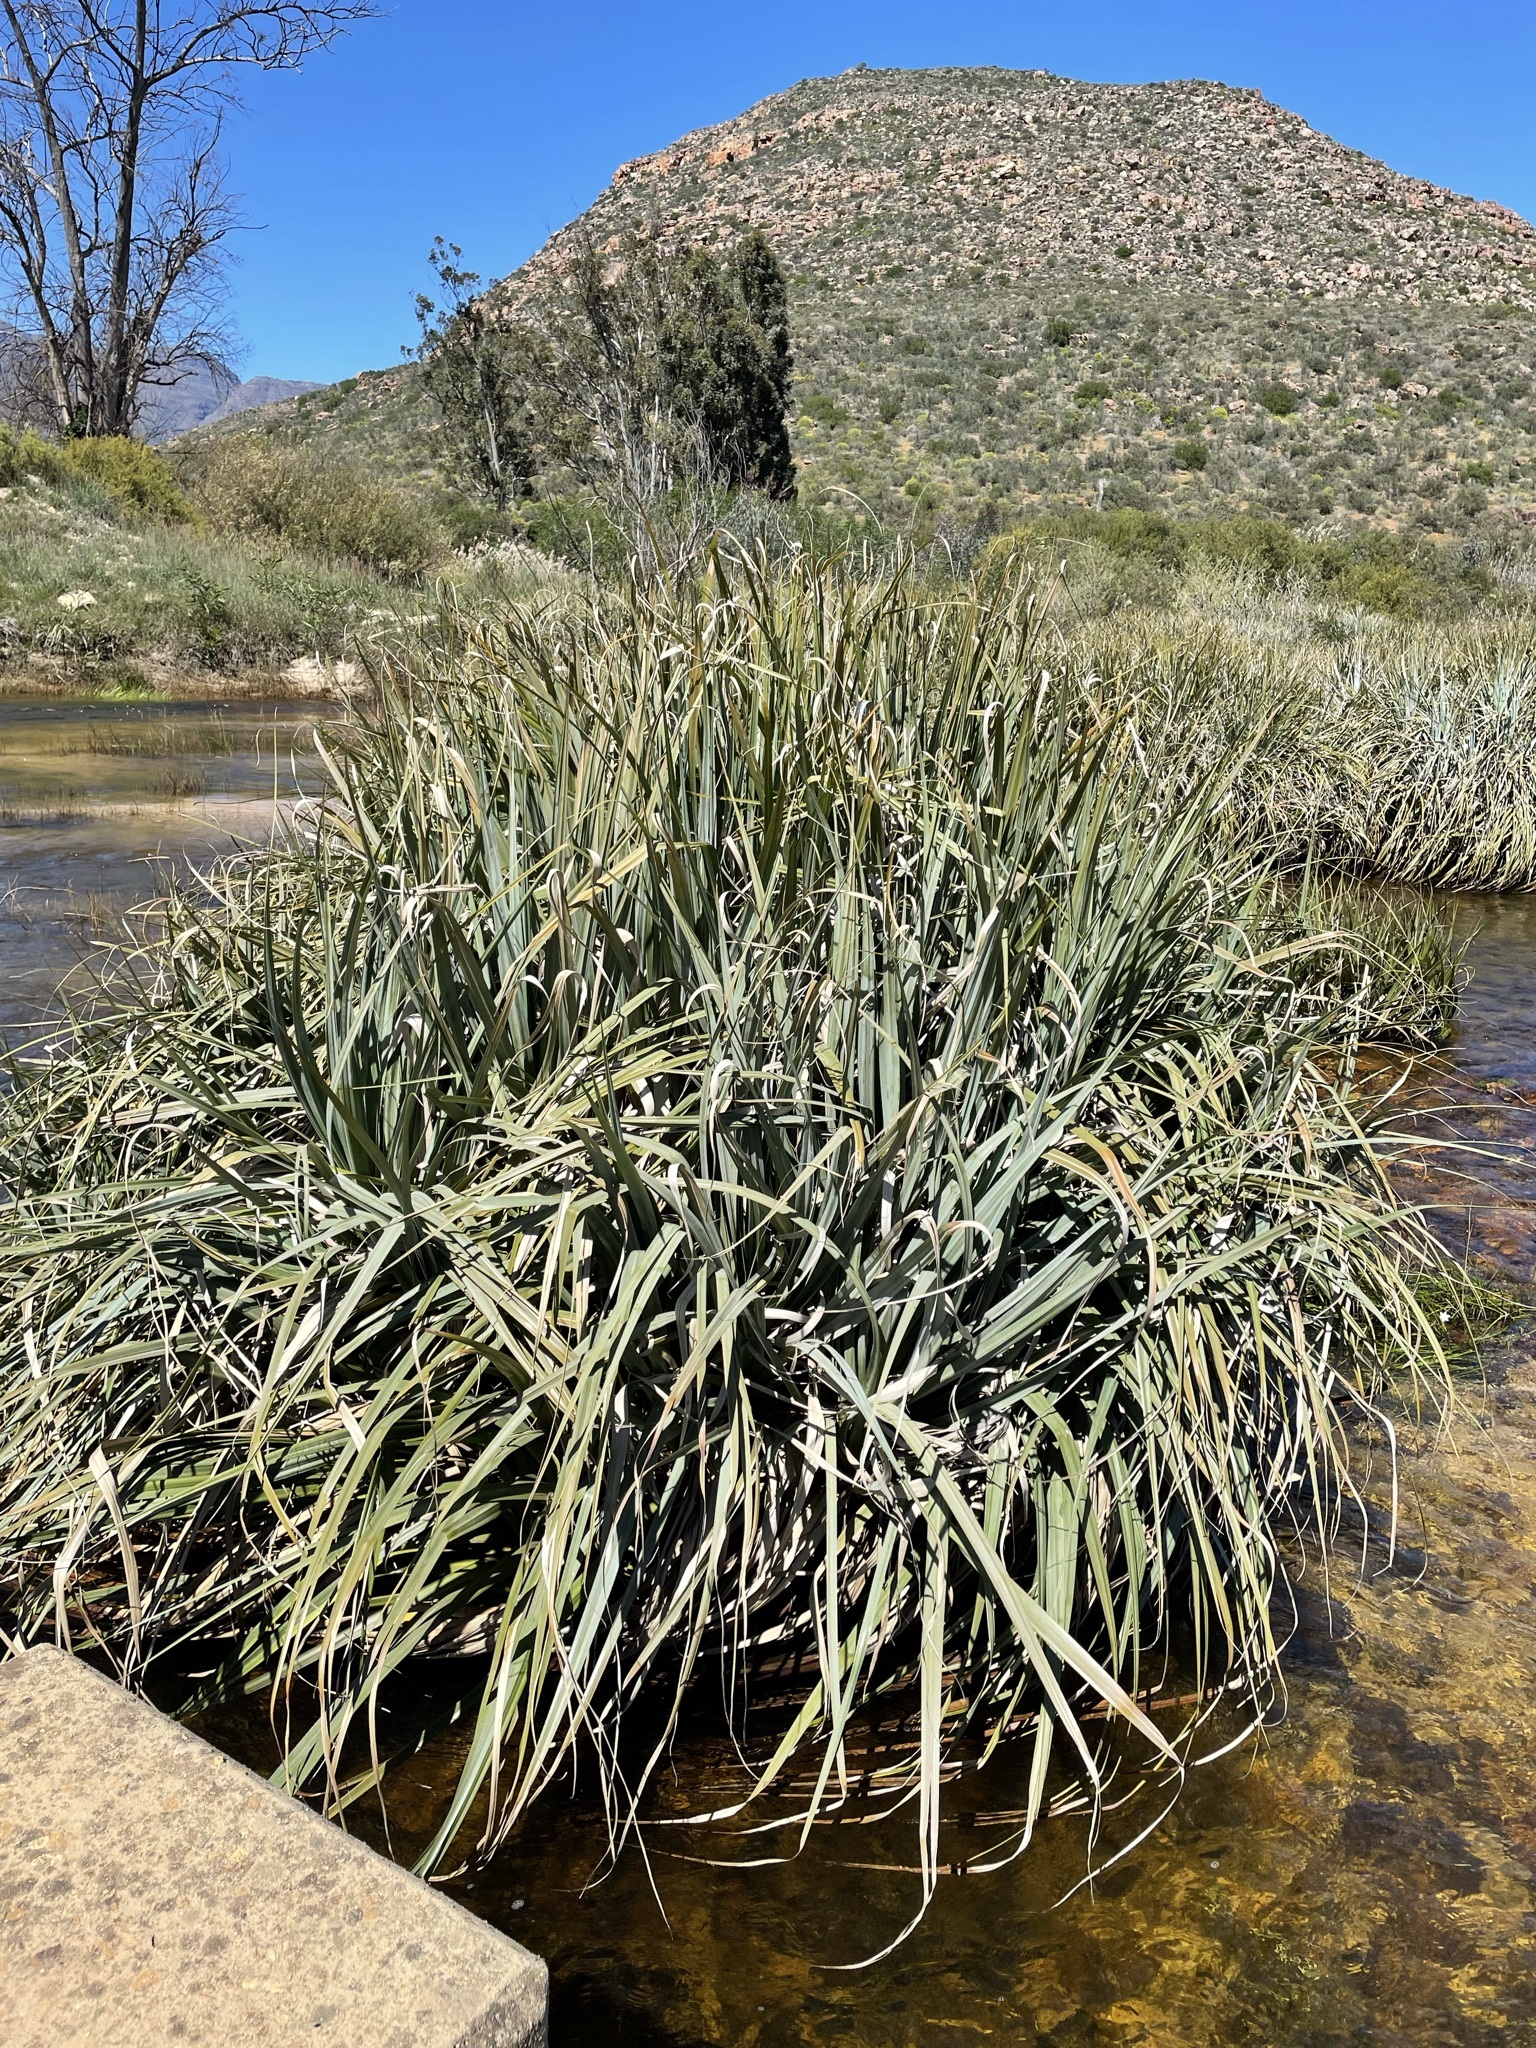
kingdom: Plantae
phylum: Tracheophyta
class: Liliopsida
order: Poales
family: Thurniaceae
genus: Prionium
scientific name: Prionium serratum
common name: Palmiet
